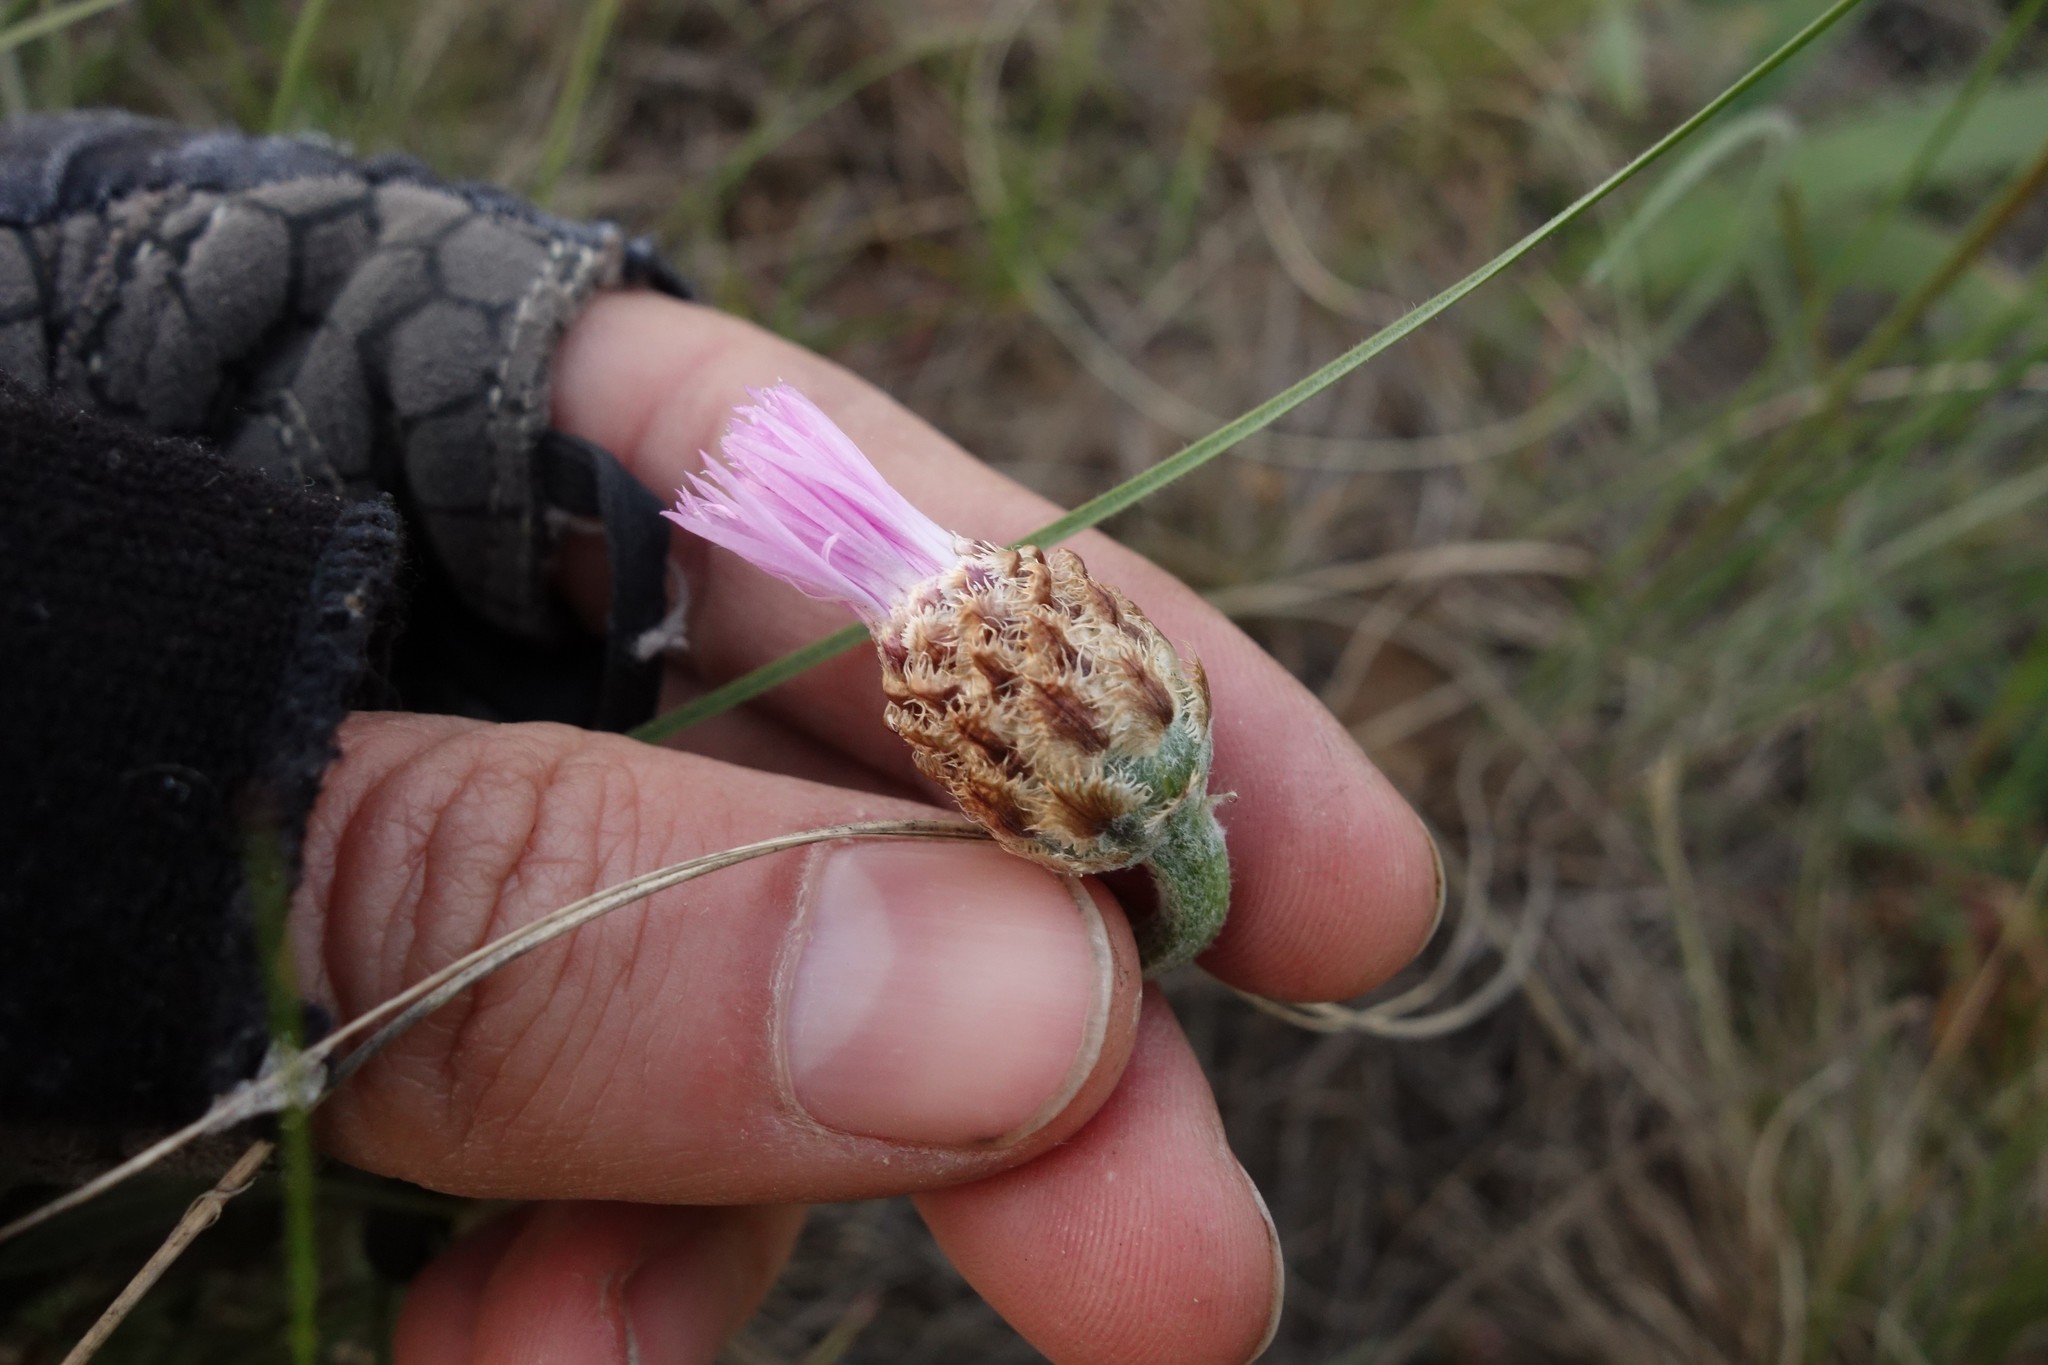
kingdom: Plantae
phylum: Tracheophyta
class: Magnoliopsida
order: Asterales
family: Asteraceae
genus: Psephellus
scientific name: Psephellus marschallianus
